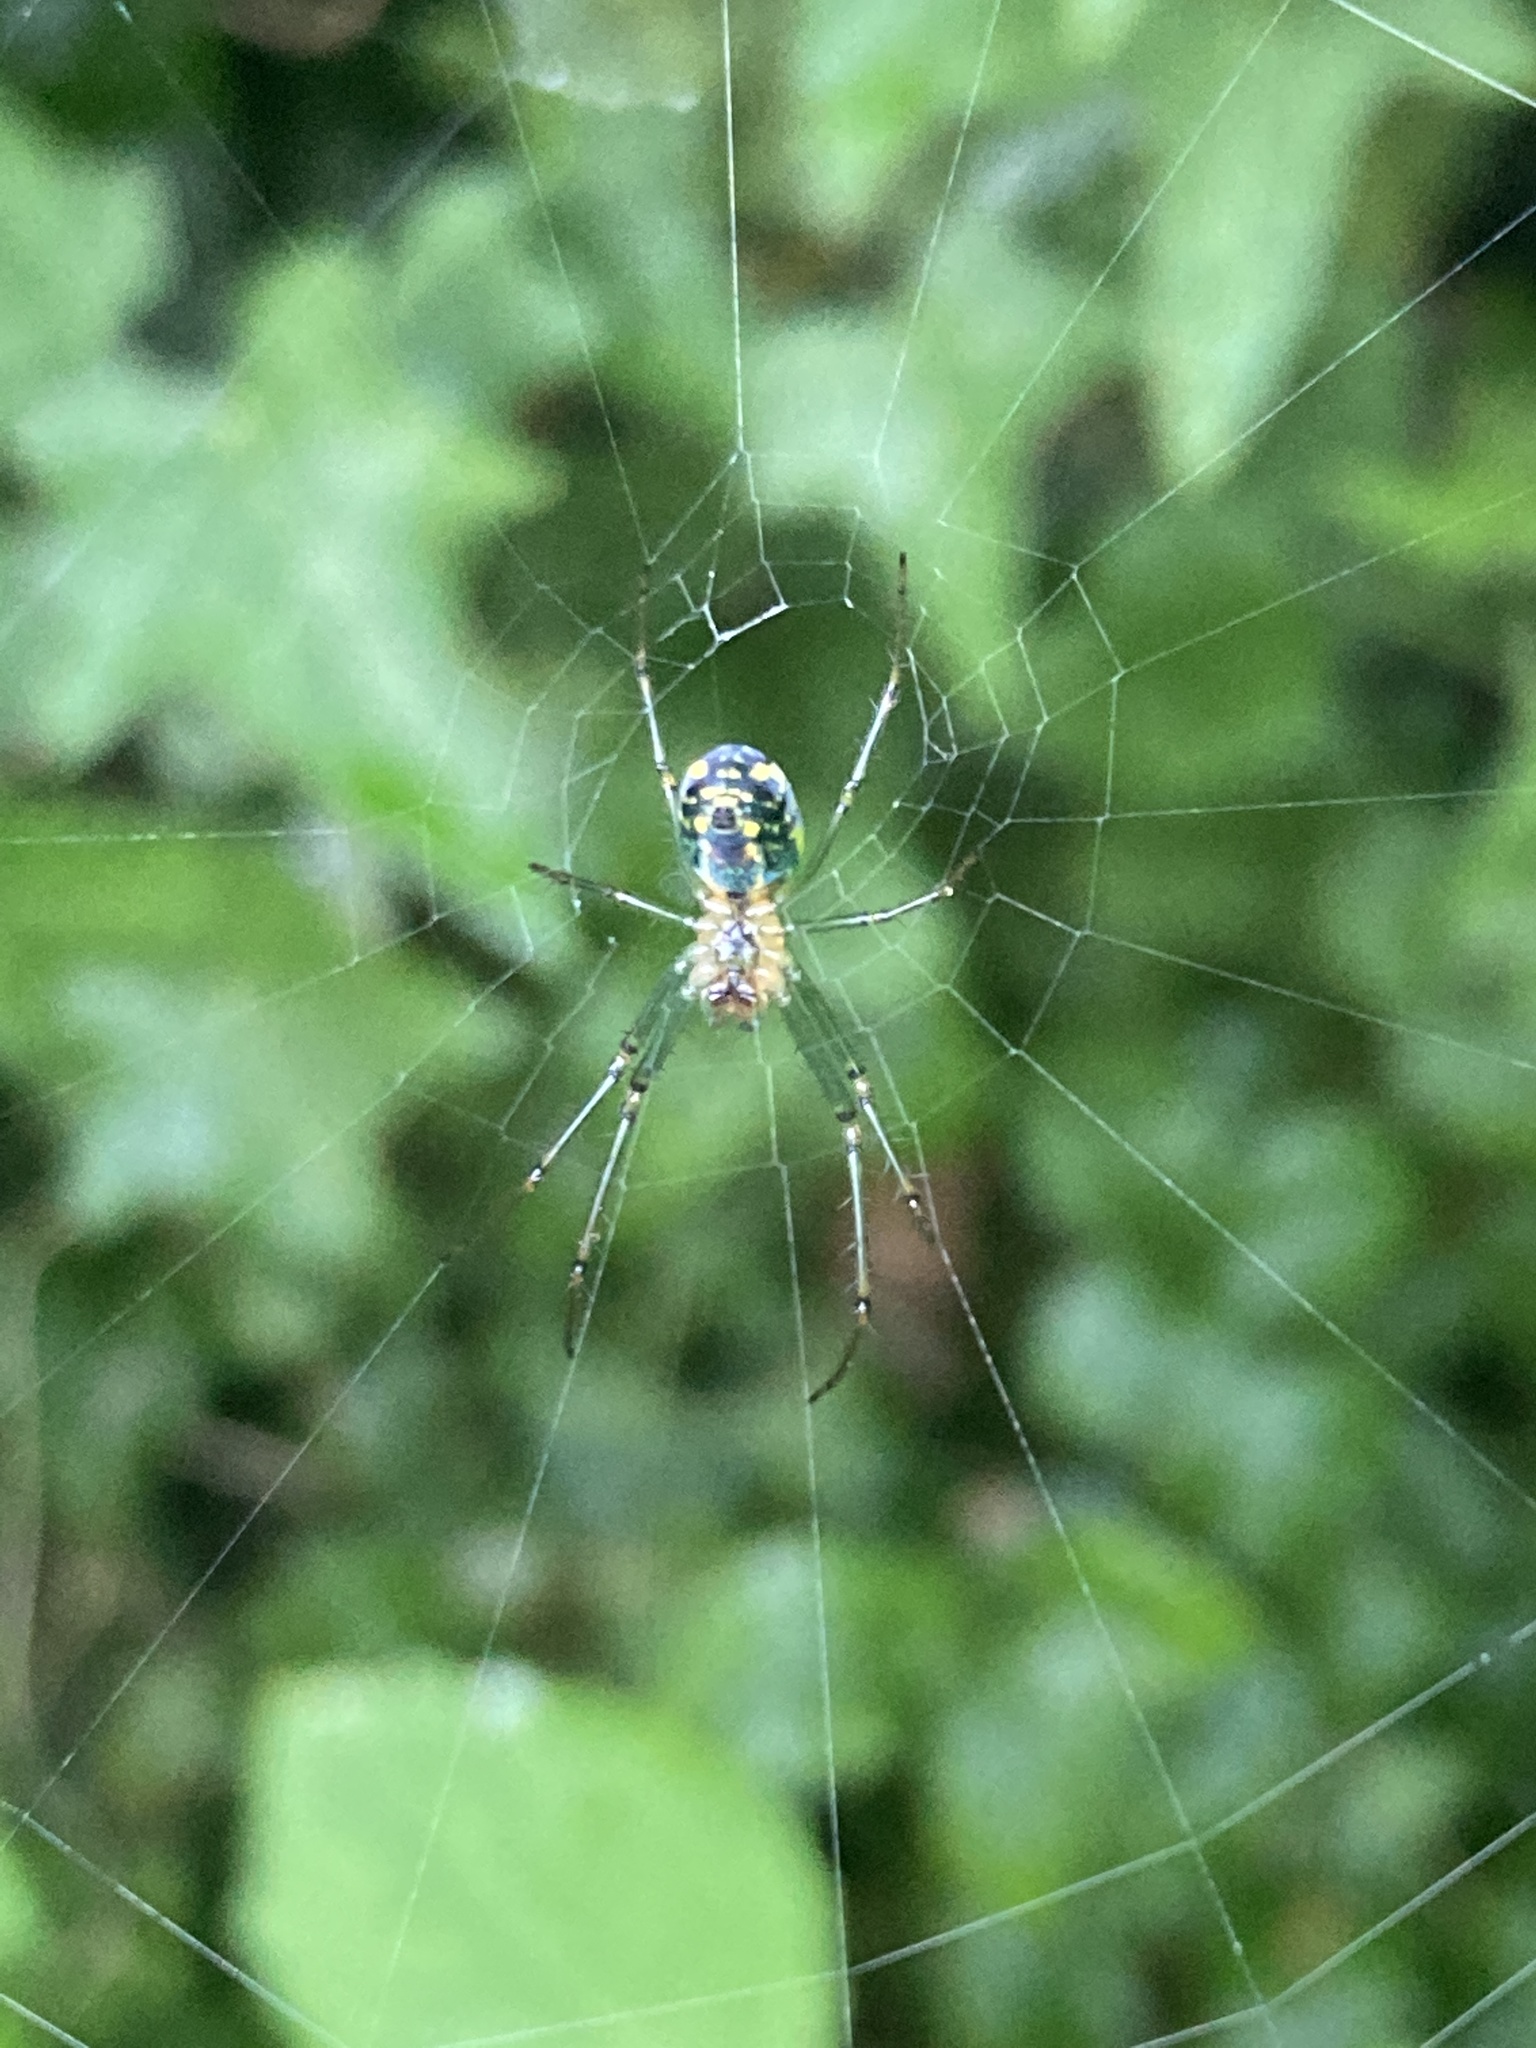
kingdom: Animalia
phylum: Arthropoda
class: Arachnida
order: Araneae
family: Tetragnathidae
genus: Leucauge
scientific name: Leucauge venusta
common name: Longjawed orb weavers
